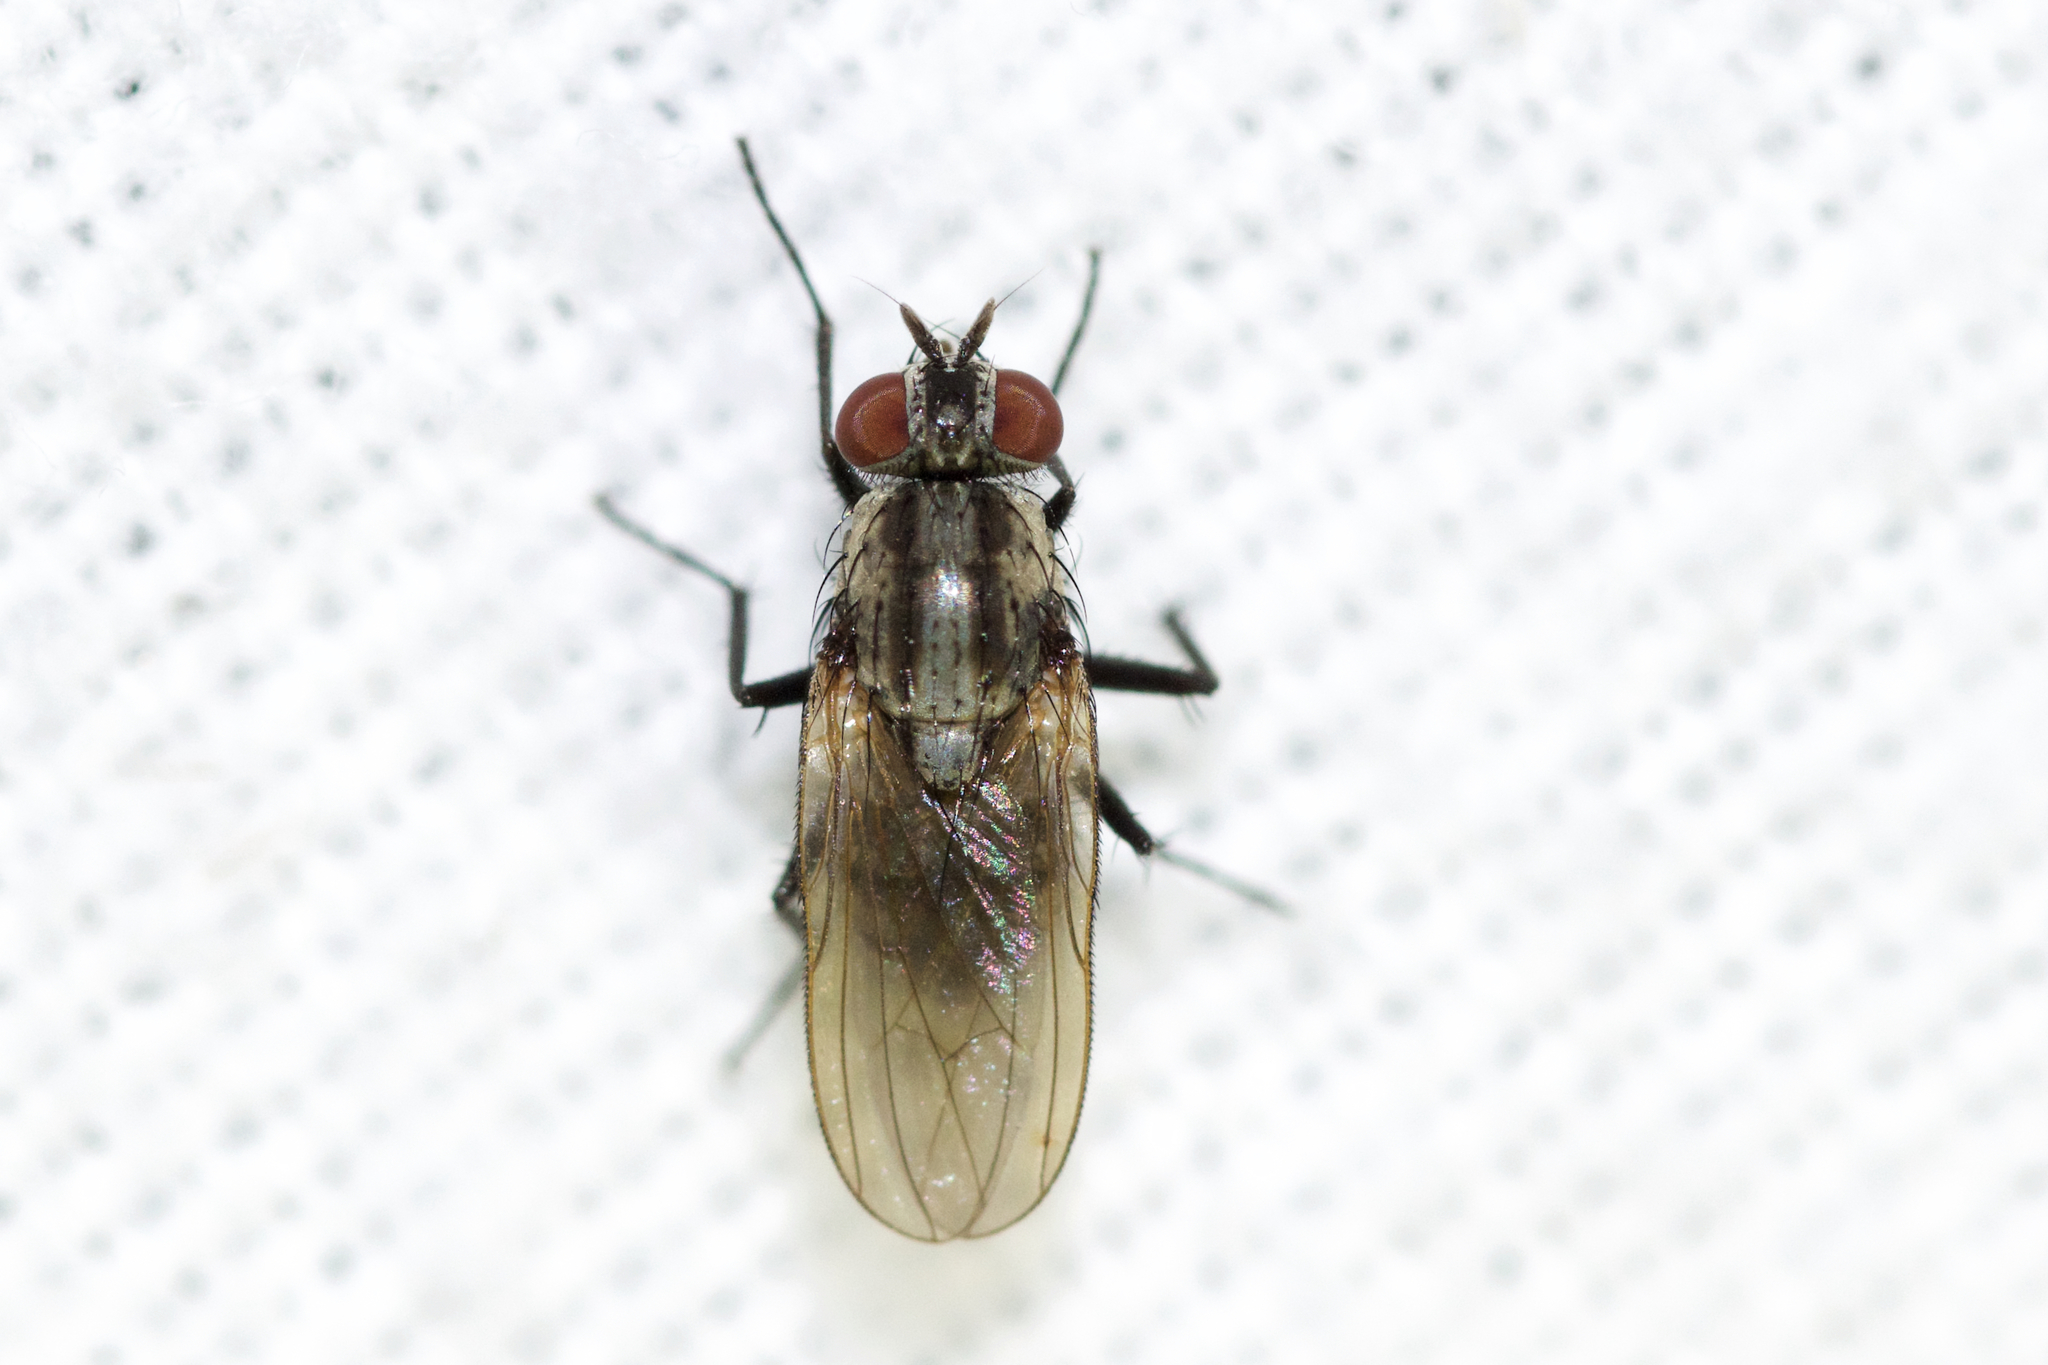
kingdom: Animalia
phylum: Arthropoda
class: Insecta
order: Diptera
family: Anthomyiidae
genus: Anthomyia
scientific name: Anthomyia oculifera
